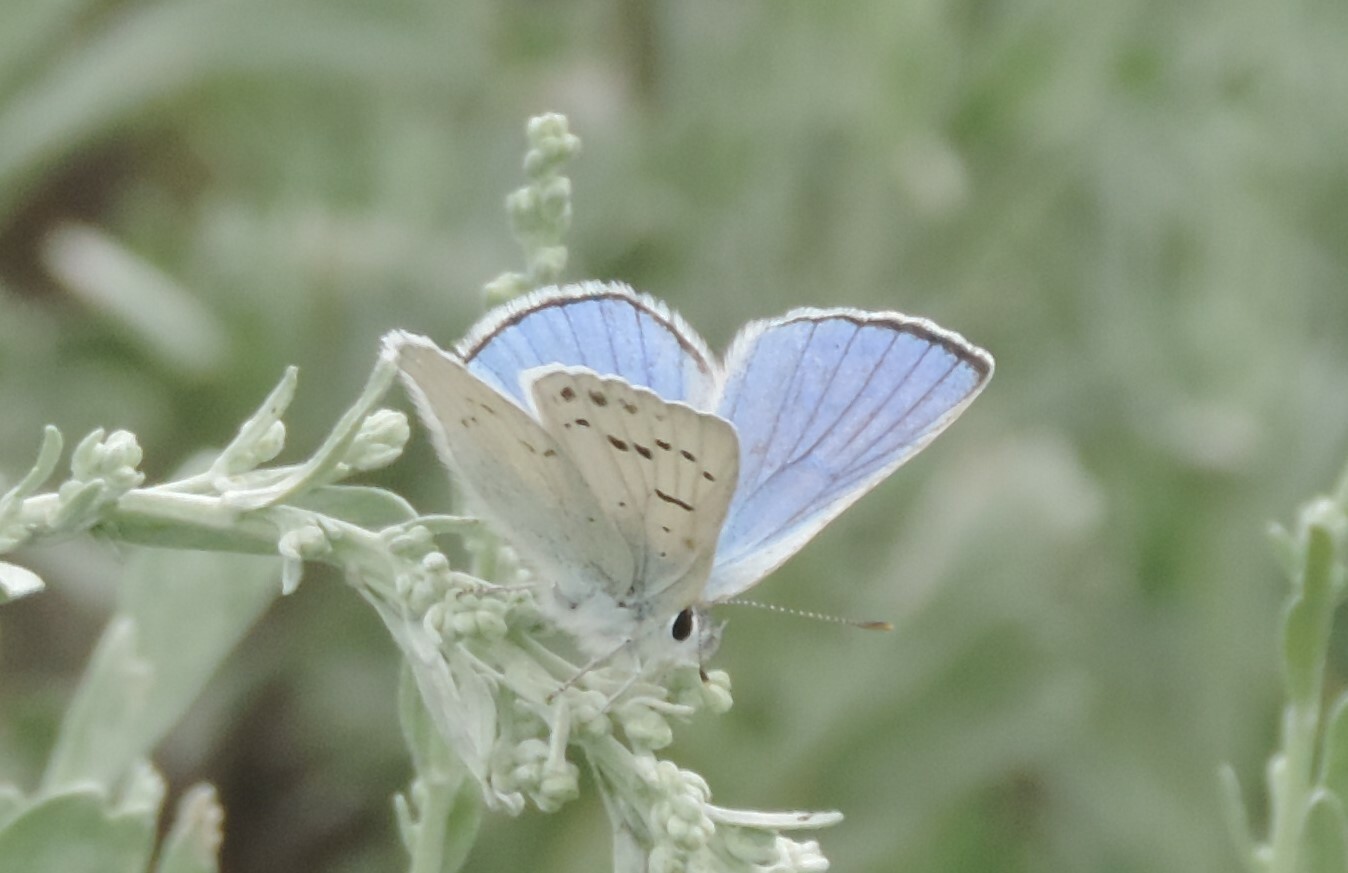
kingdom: Animalia
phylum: Arthropoda
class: Insecta
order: Lepidoptera
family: Lycaenidae
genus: Tharsalea
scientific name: Tharsalea heteronea
